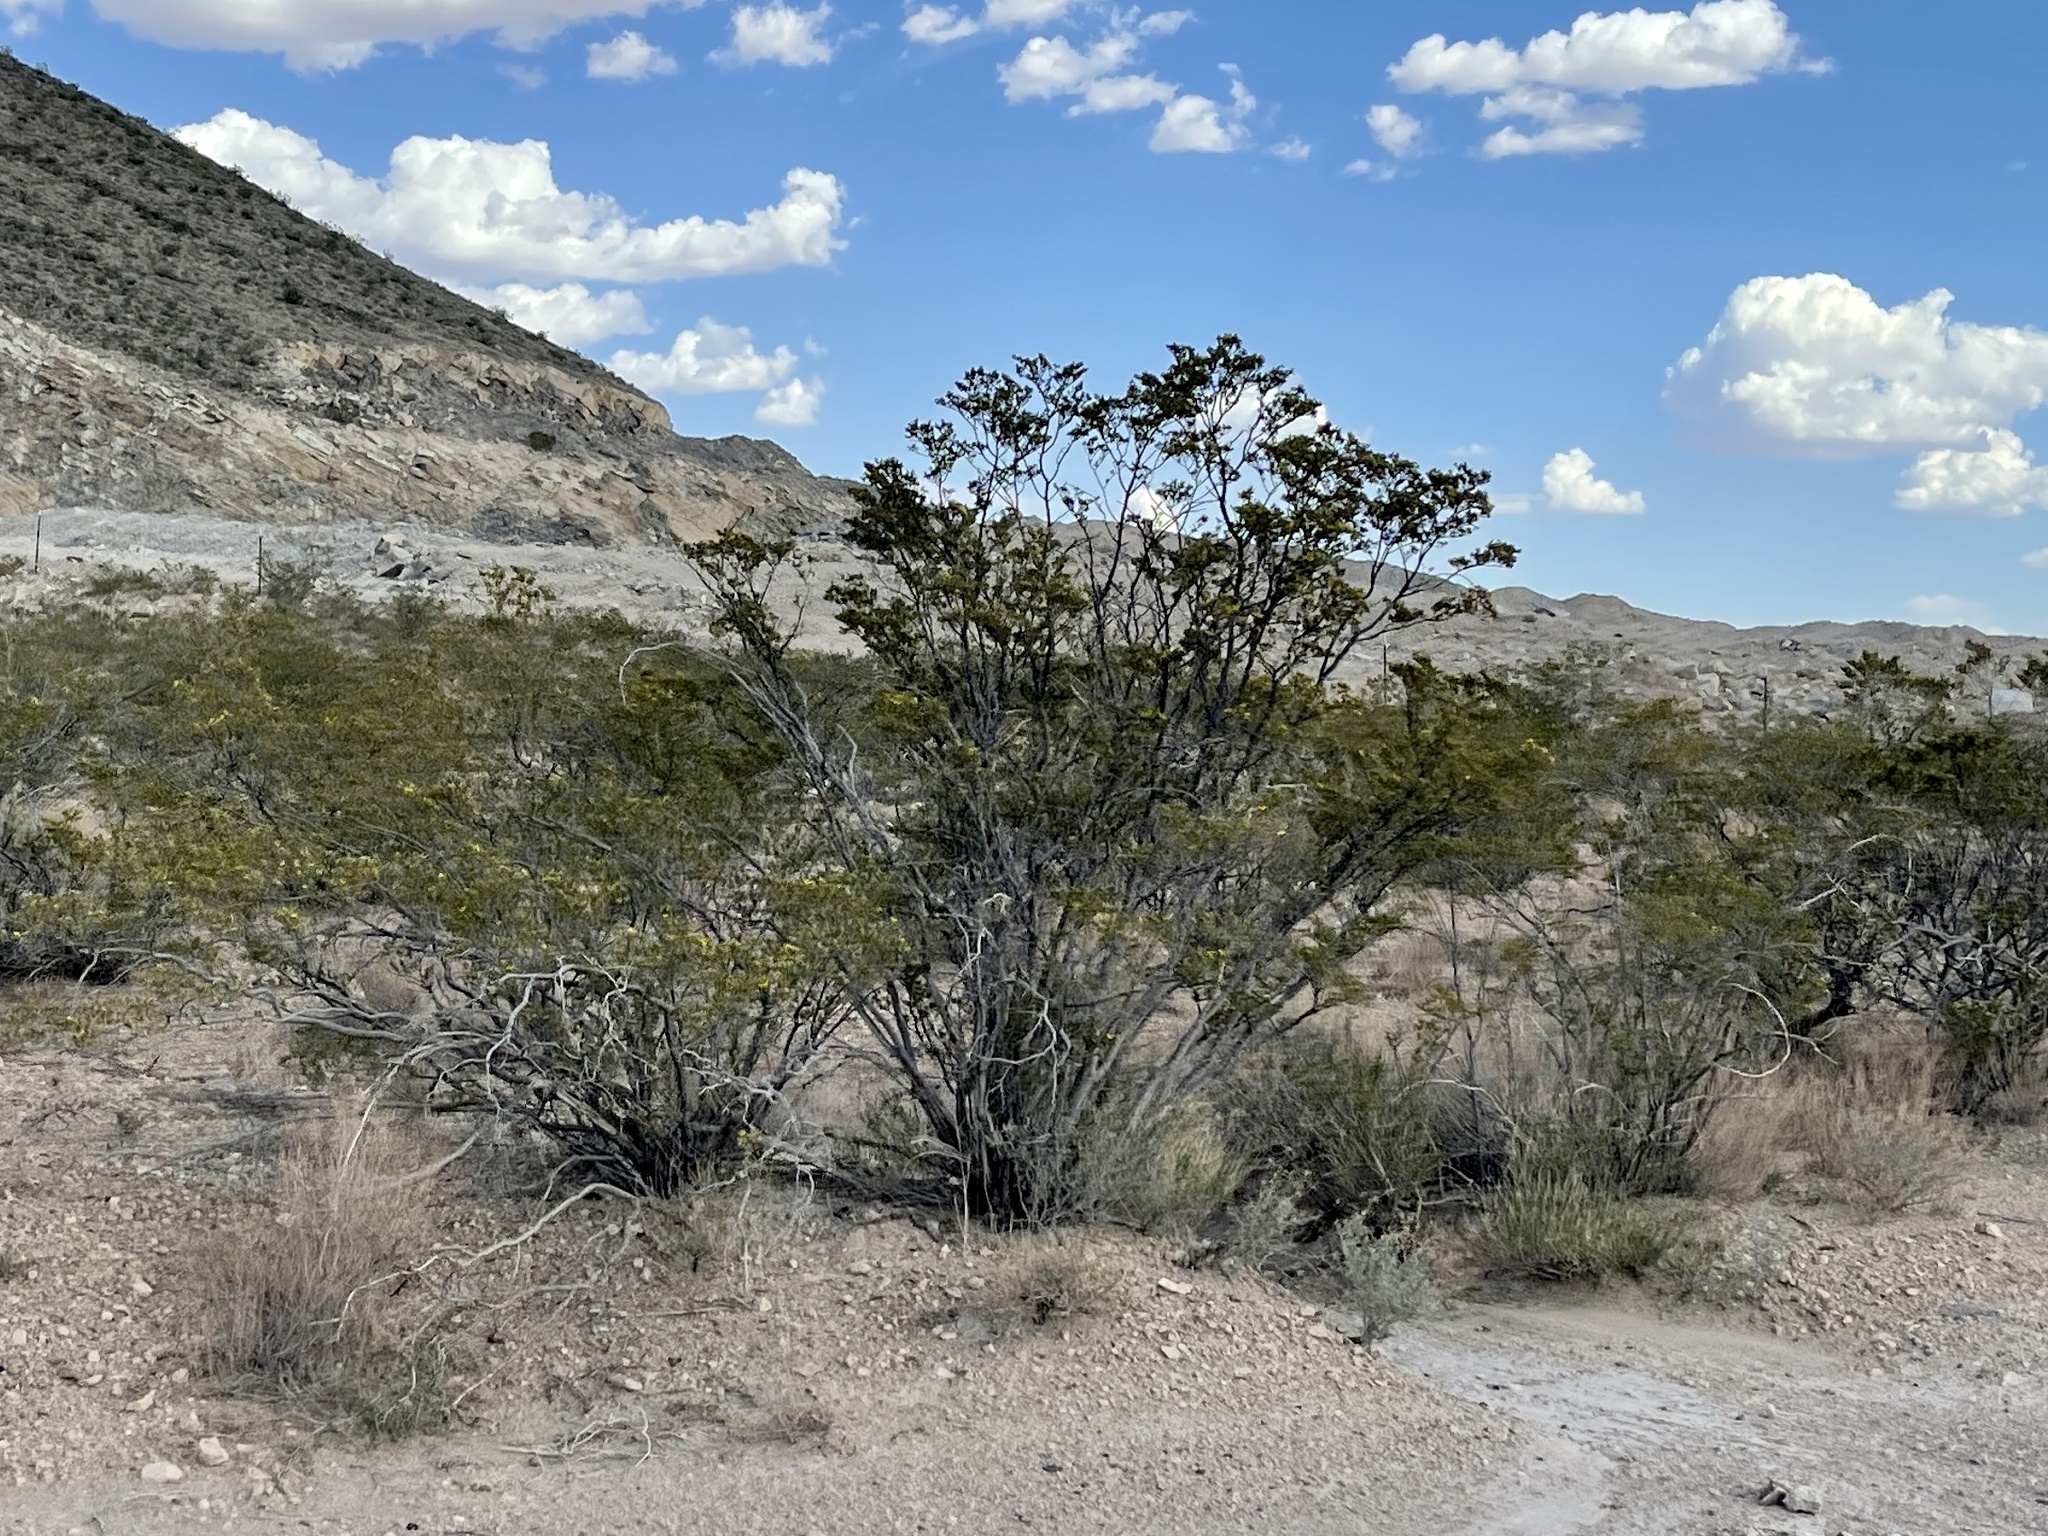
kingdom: Plantae
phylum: Tracheophyta
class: Magnoliopsida
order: Zygophyllales
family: Zygophyllaceae
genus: Larrea
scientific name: Larrea tridentata
